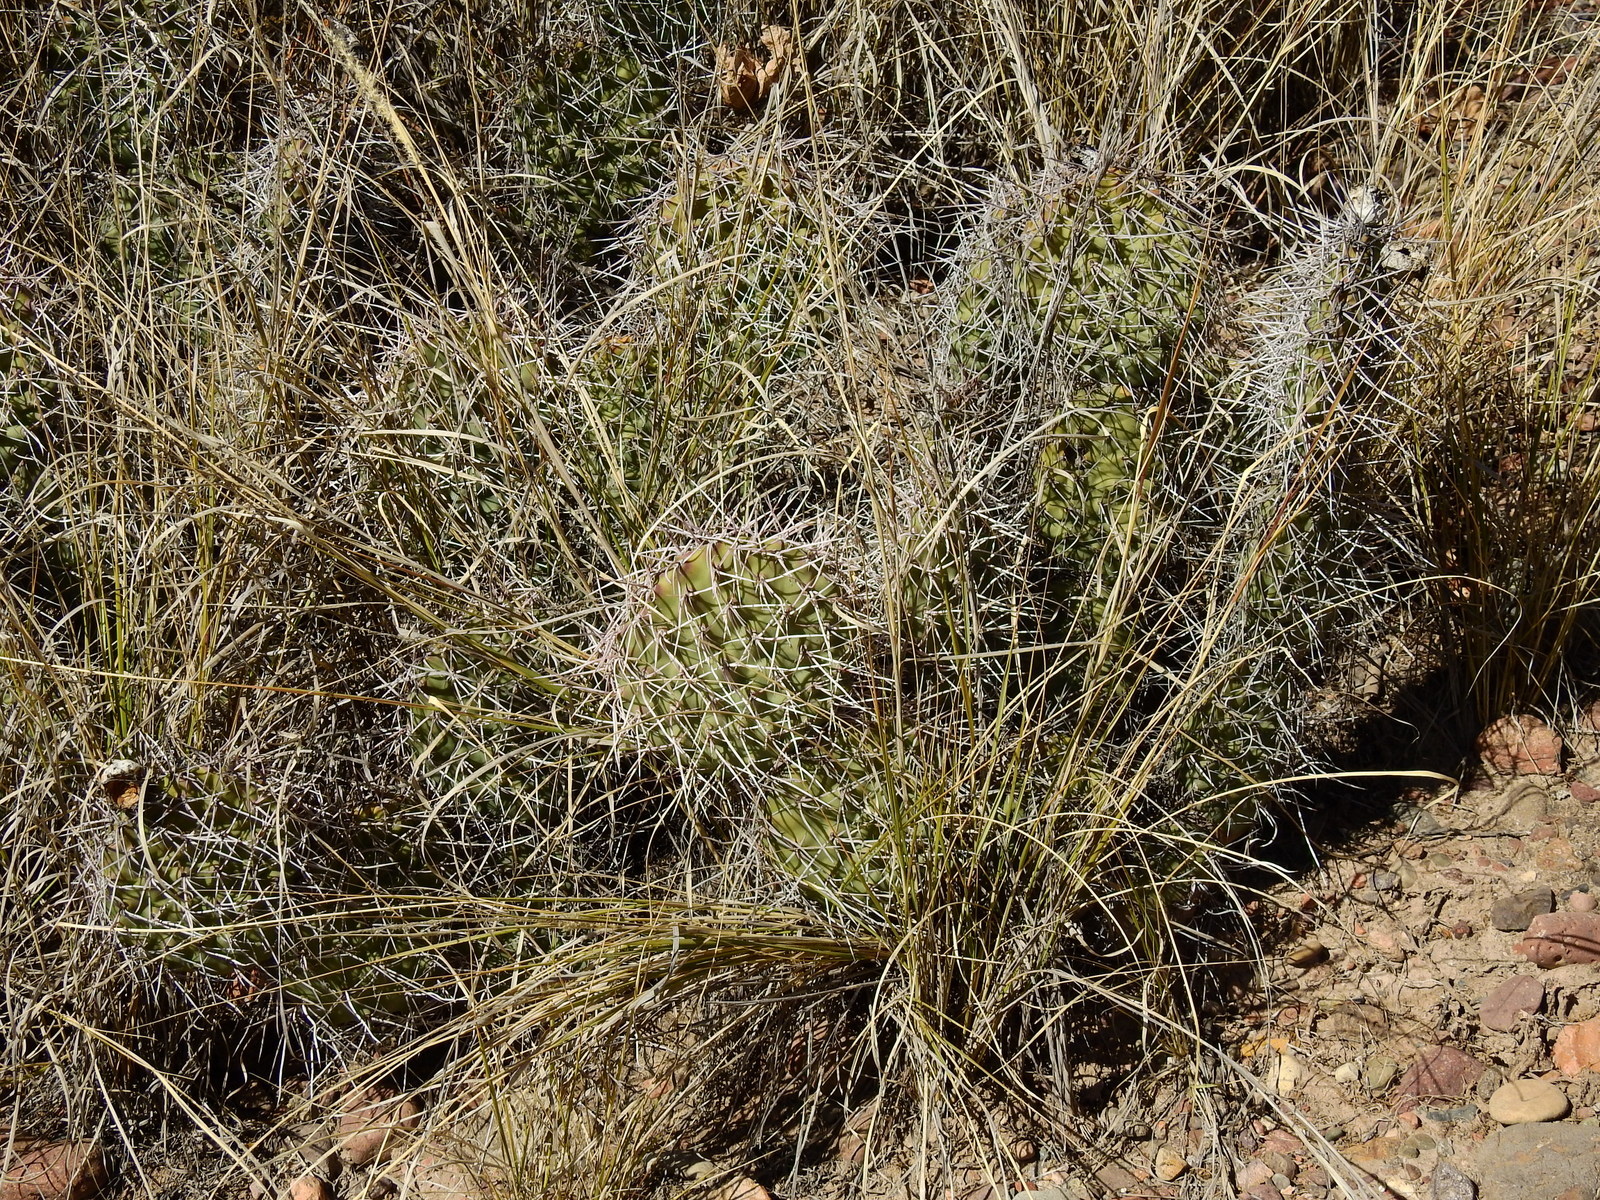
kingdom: Plantae
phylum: Tracheophyta
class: Magnoliopsida
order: Caryophyllales
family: Cactaceae
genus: Opuntia
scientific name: Opuntia sulphurea
